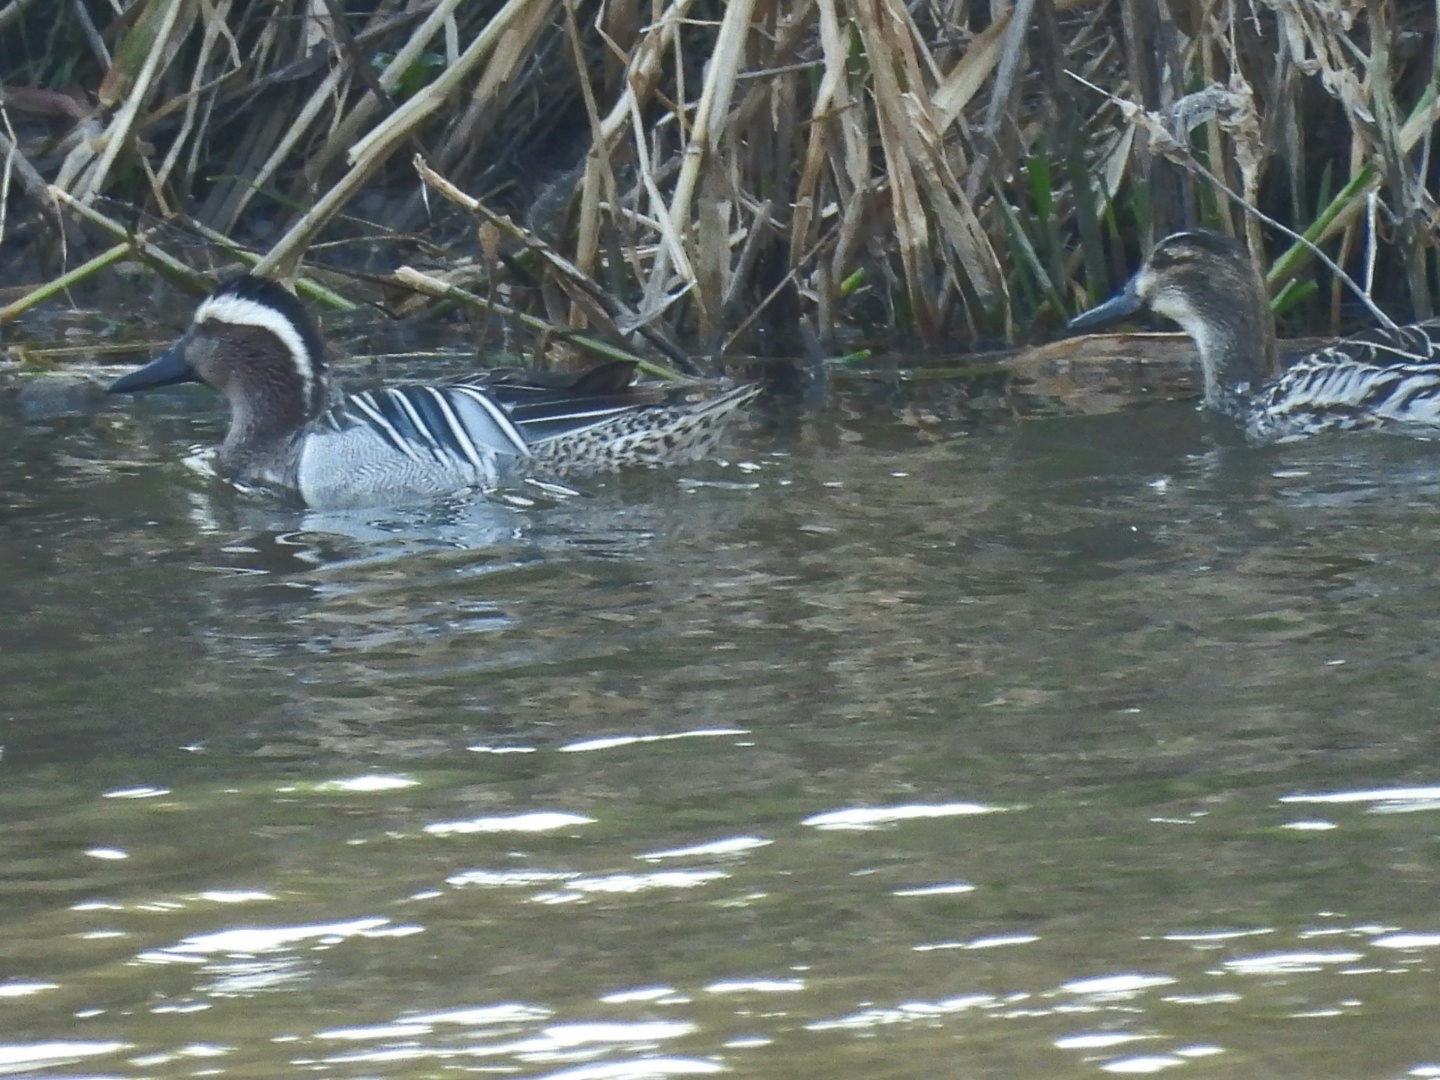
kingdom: Animalia
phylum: Chordata
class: Aves
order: Anseriformes
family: Anatidae
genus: Spatula
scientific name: Spatula querquedula
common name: Garganey
